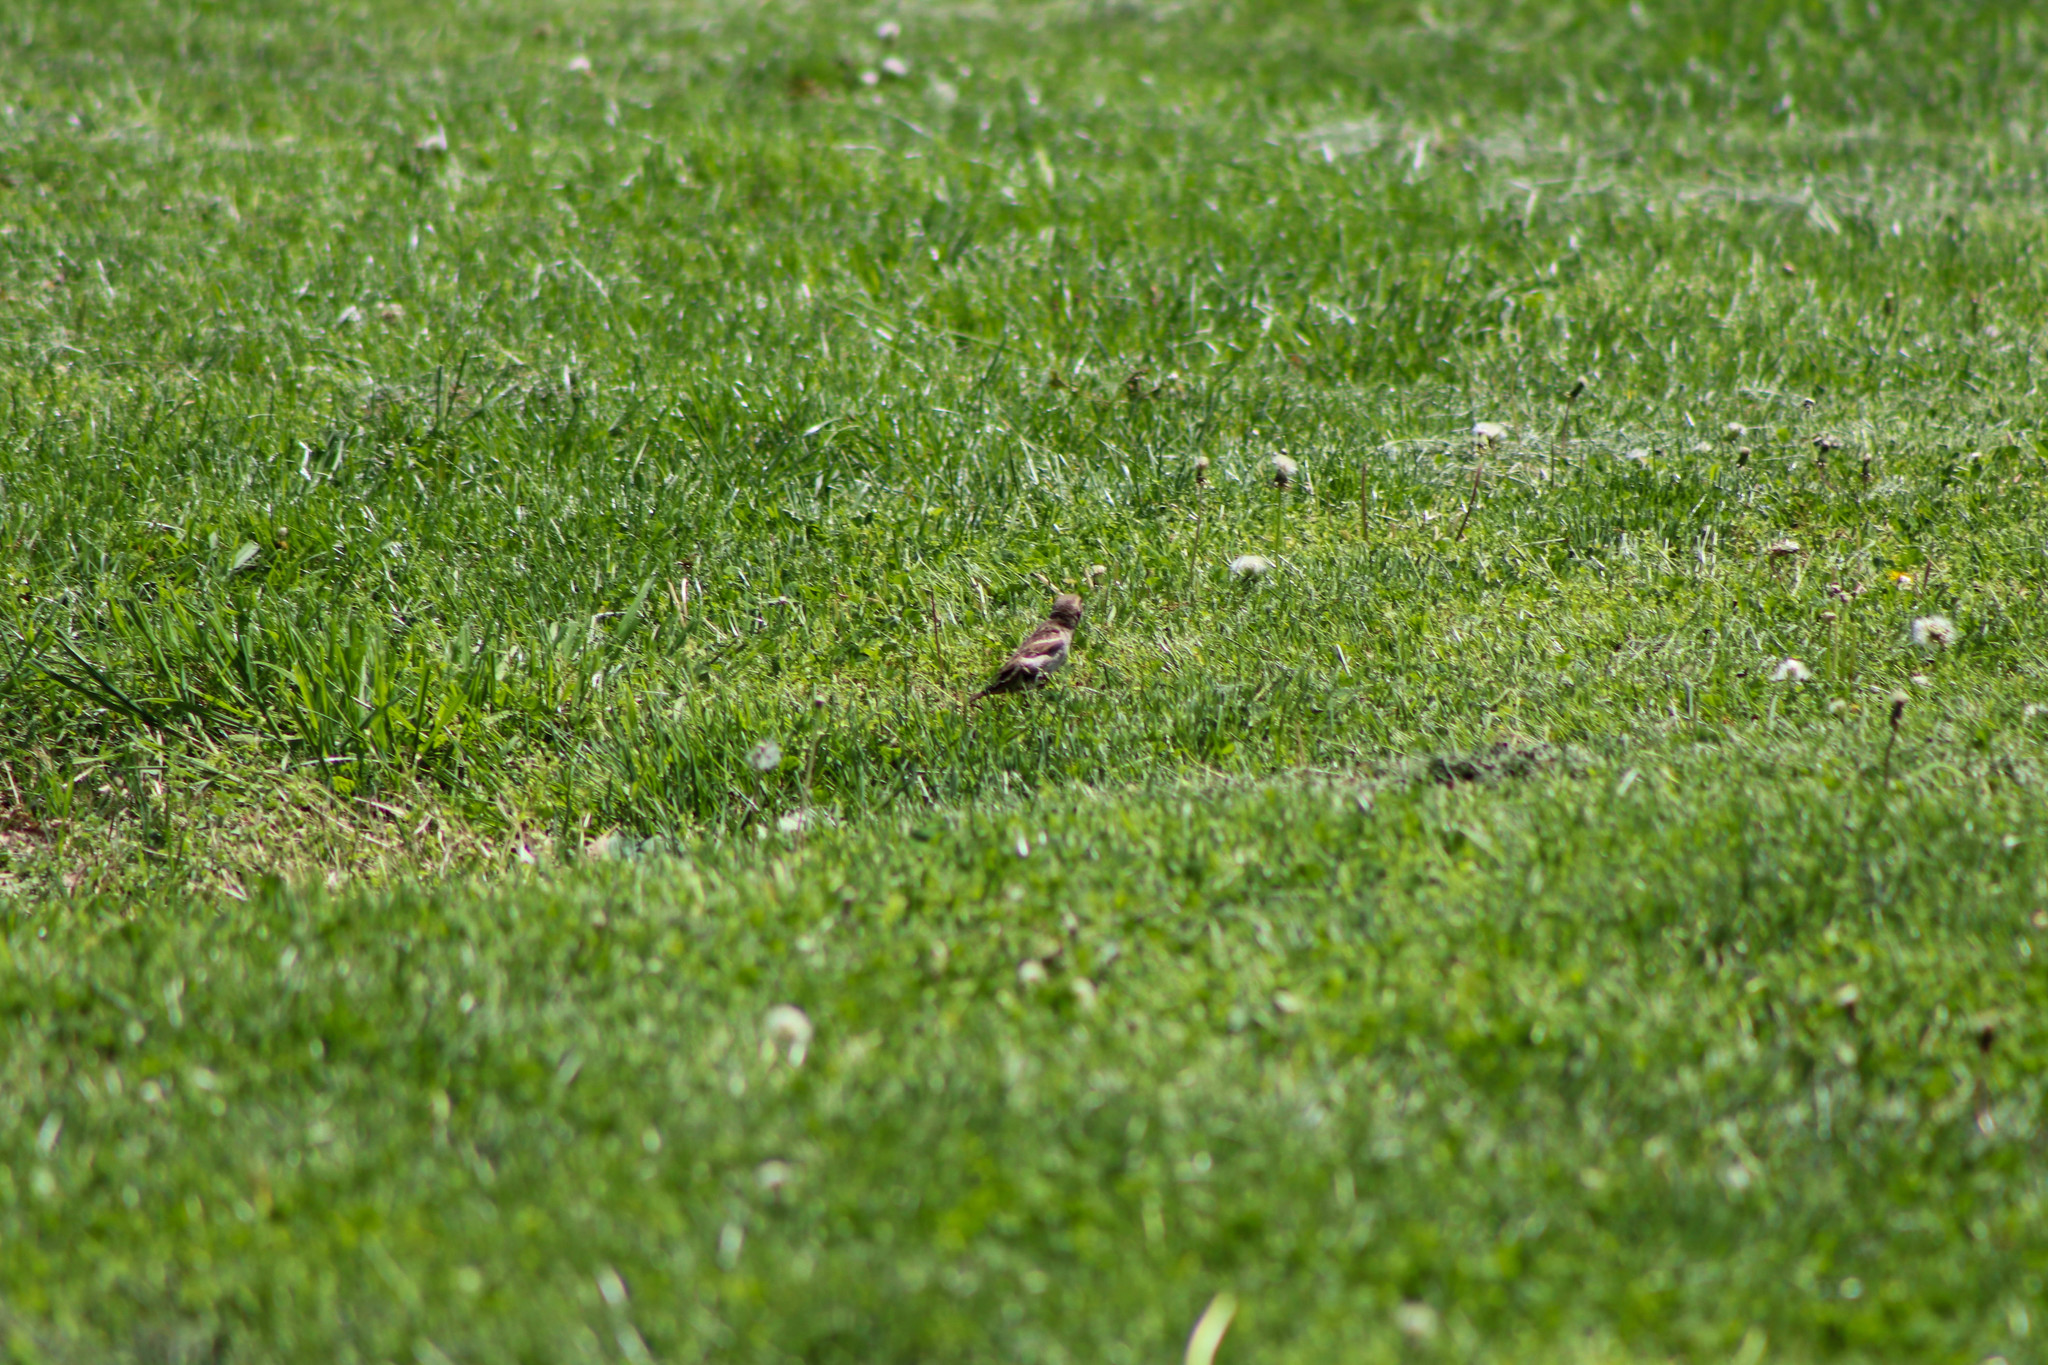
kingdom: Animalia
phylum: Chordata
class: Aves
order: Passeriformes
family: Passeridae
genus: Passer
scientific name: Passer domesticus
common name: House sparrow
